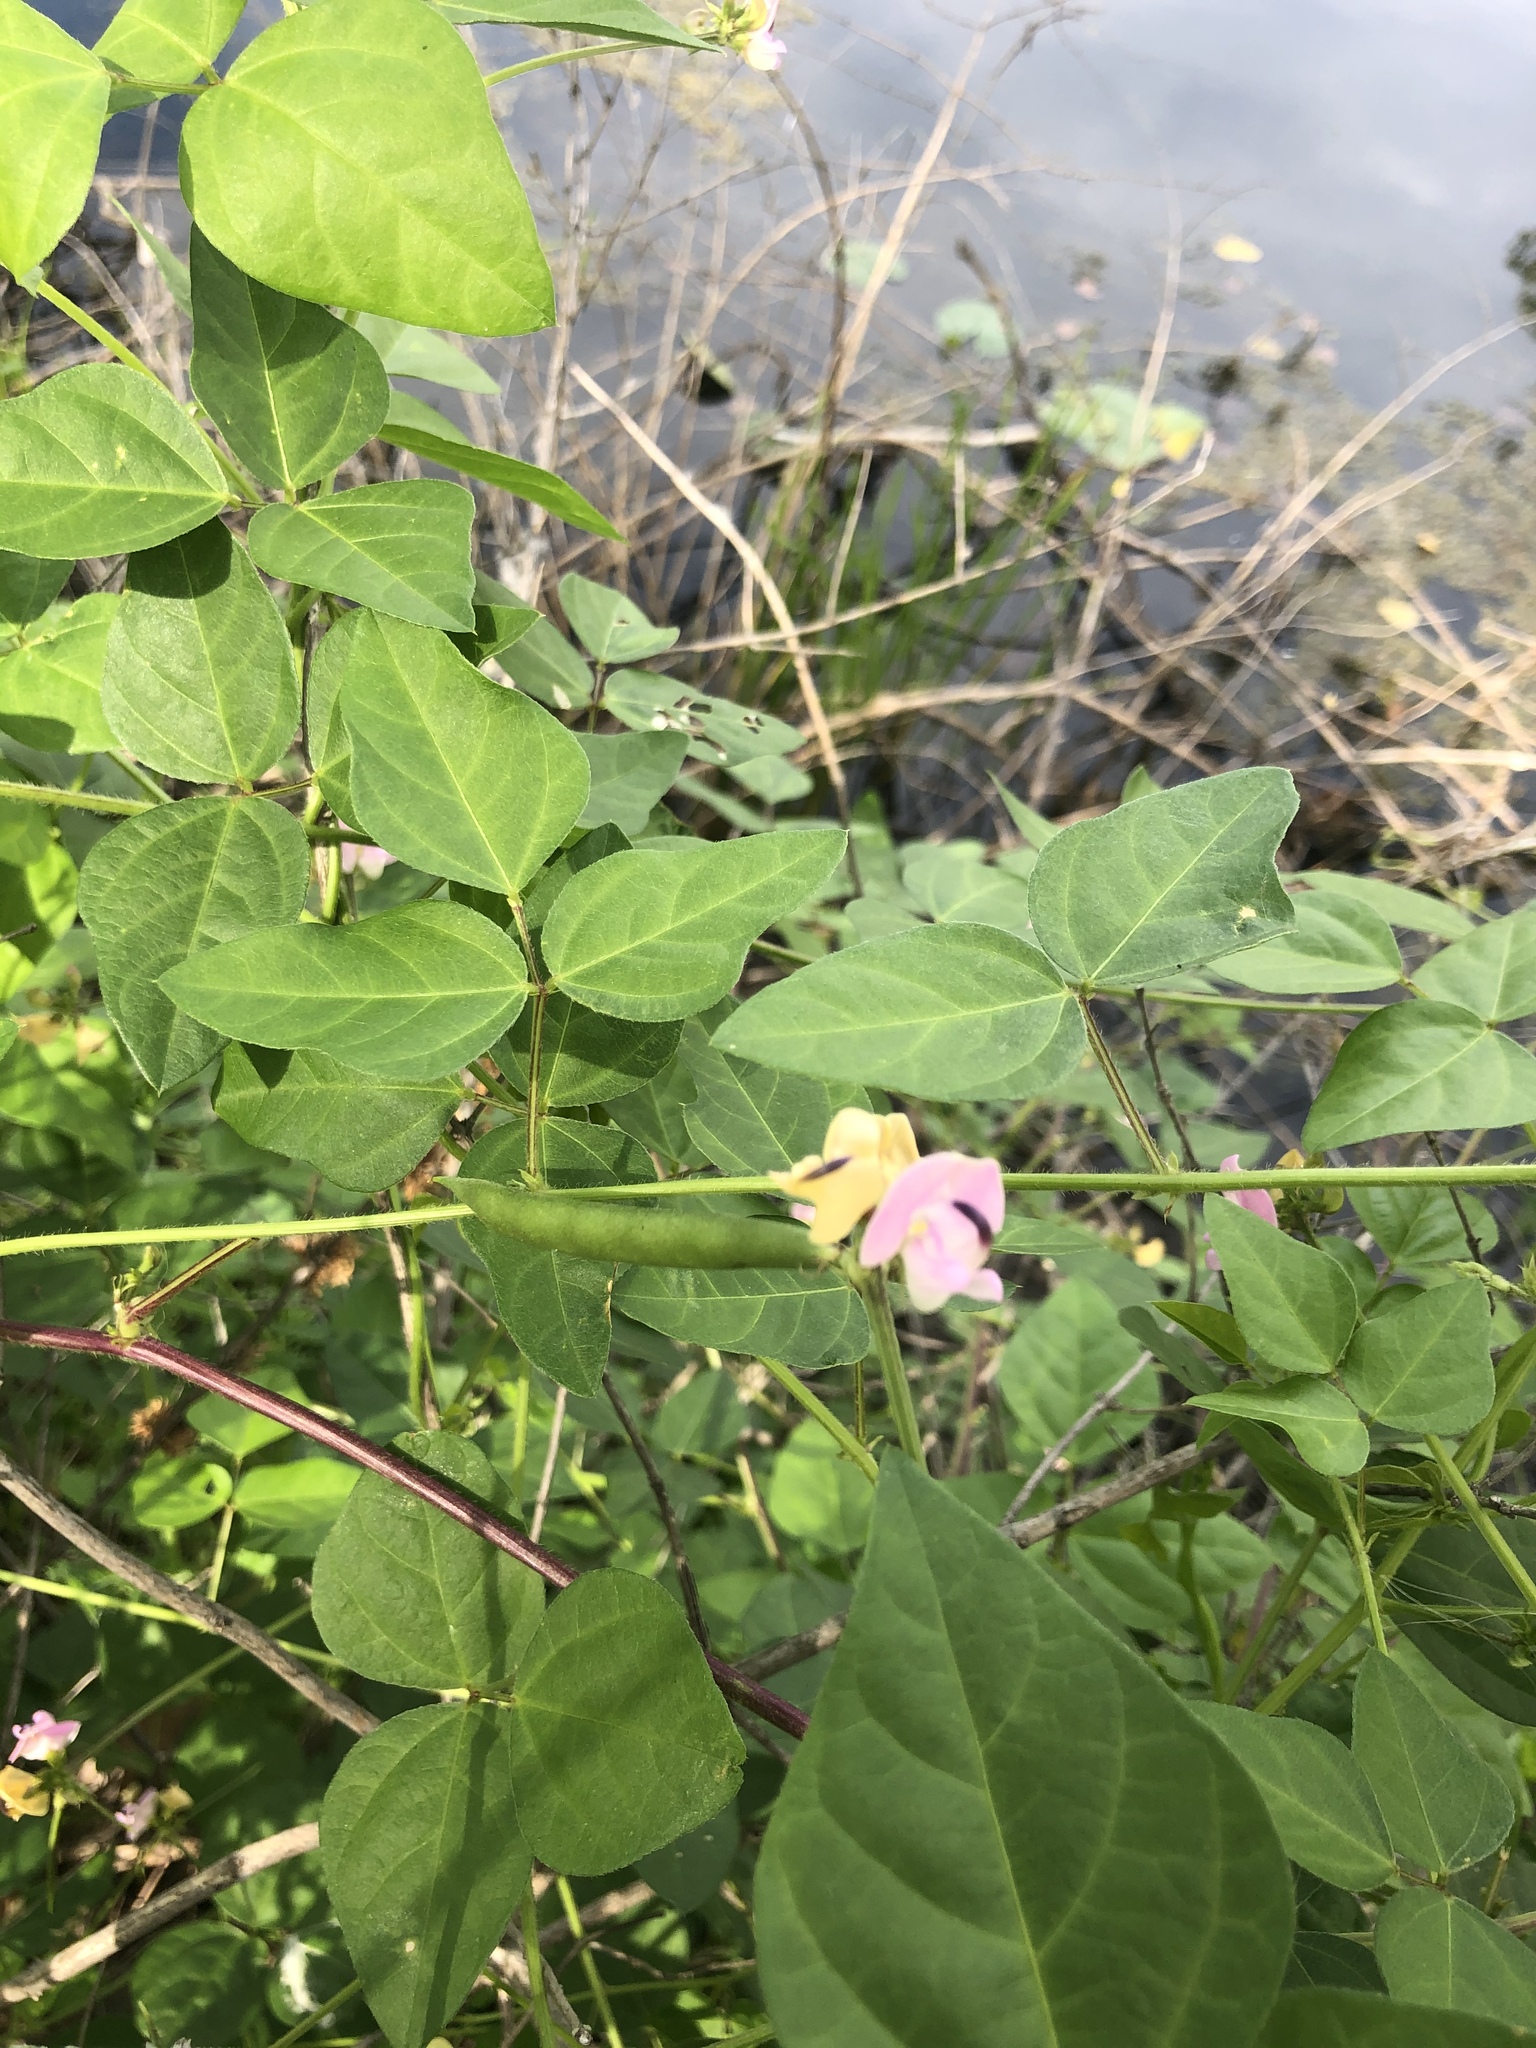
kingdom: Plantae
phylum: Tracheophyta
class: Magnoliopsida
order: Fabales
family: Fabaceae
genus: Strophostyles
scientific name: Strophostyles helvola
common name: Trailing wild bean
